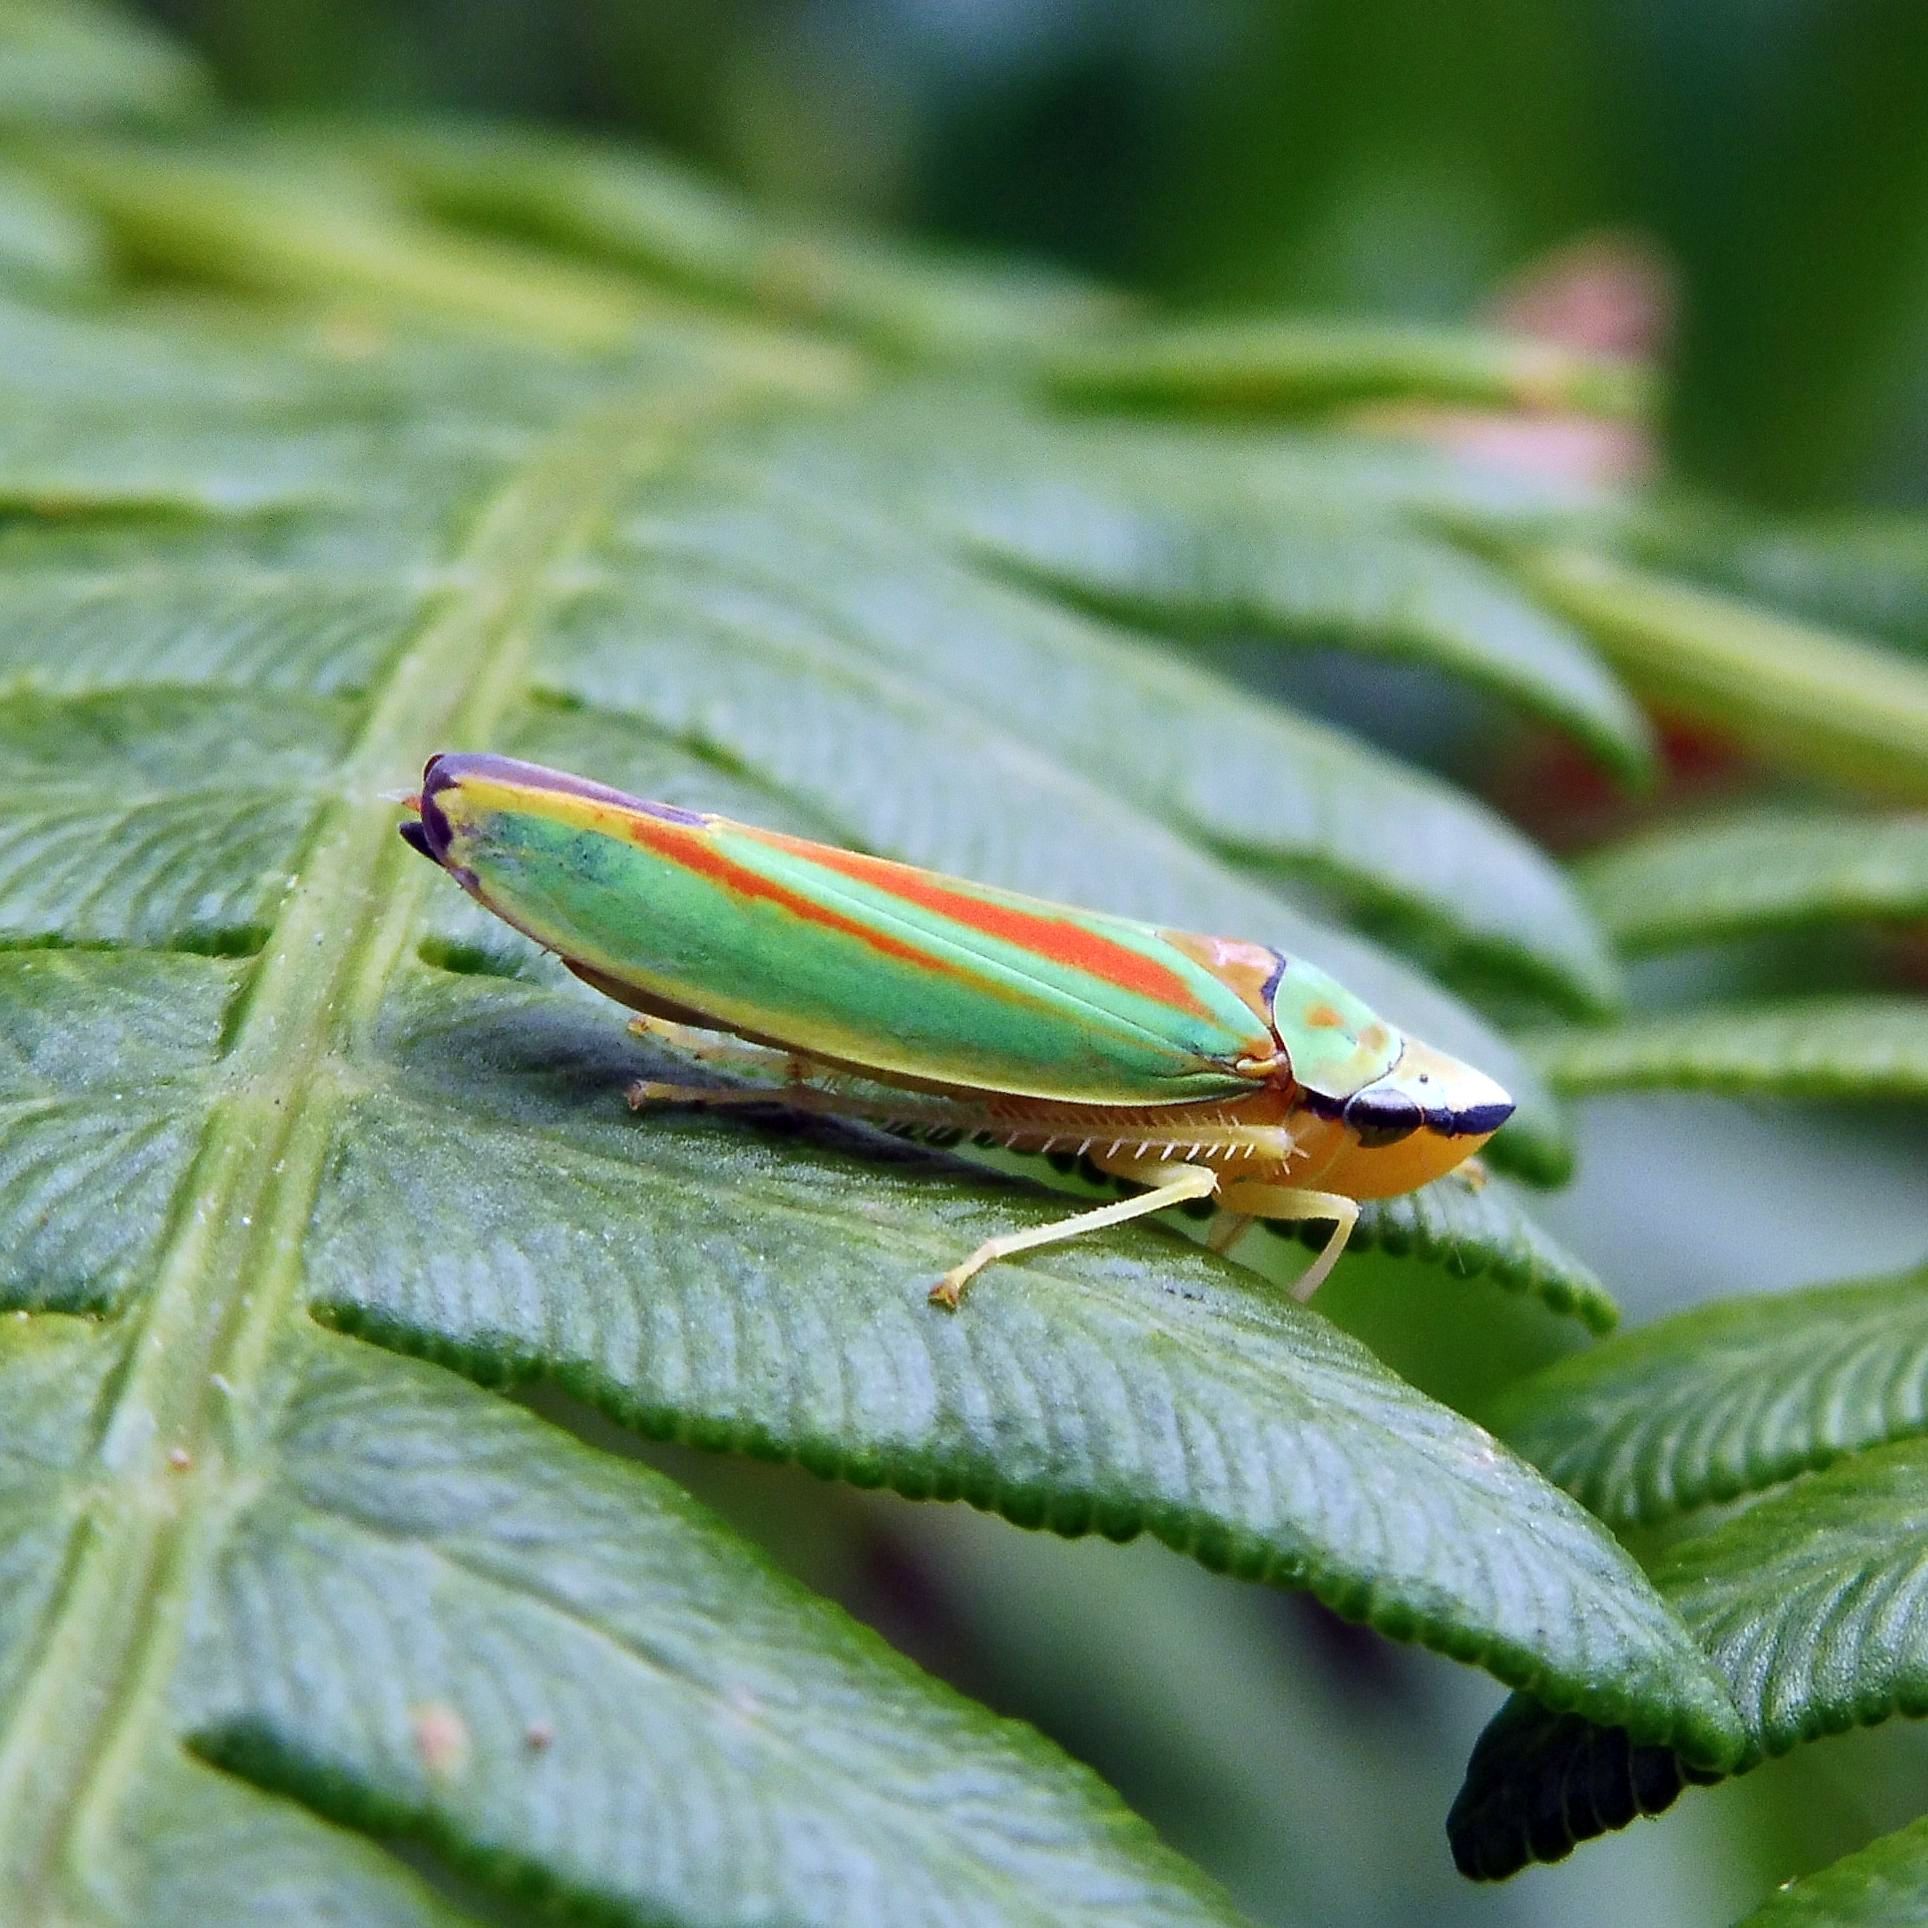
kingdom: Animalia
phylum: Arthropoda
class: Insecta
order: Hemiptera
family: Cicadellidae
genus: Graphocephala
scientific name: Graphocephala fennahi
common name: Rhododendron leafhopper
